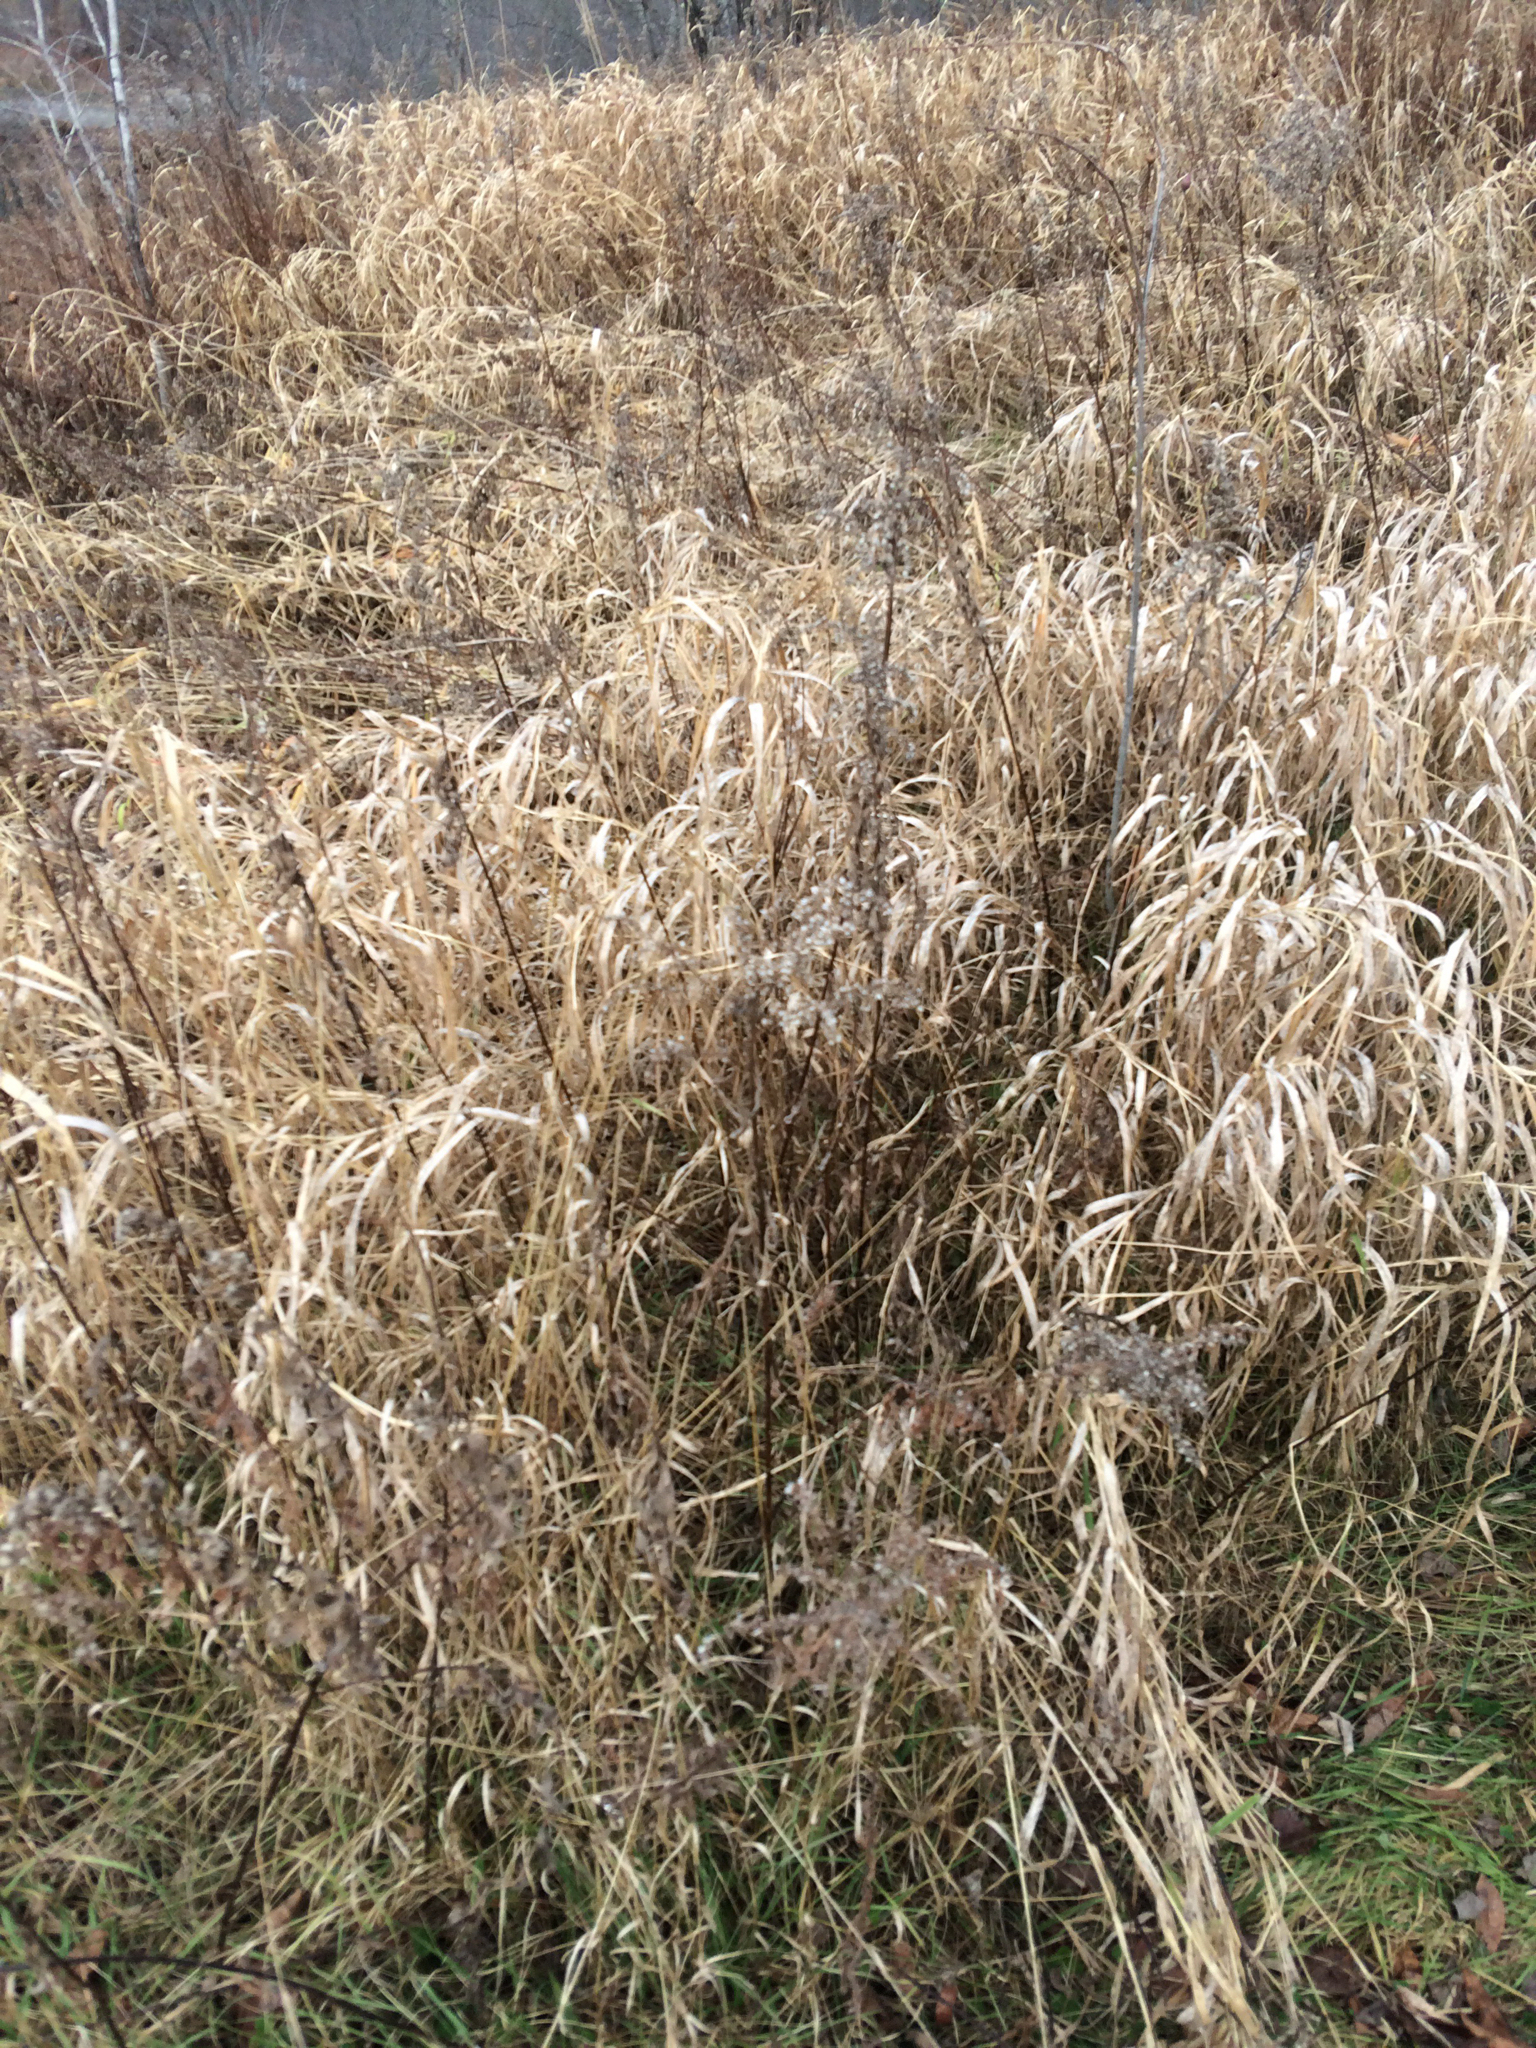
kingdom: Plantae
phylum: Tracheophyta
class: Liliopsida
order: Poales
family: Poaceae
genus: Phalaris
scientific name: Phalaris arundinacea
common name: Reed canary-grass
